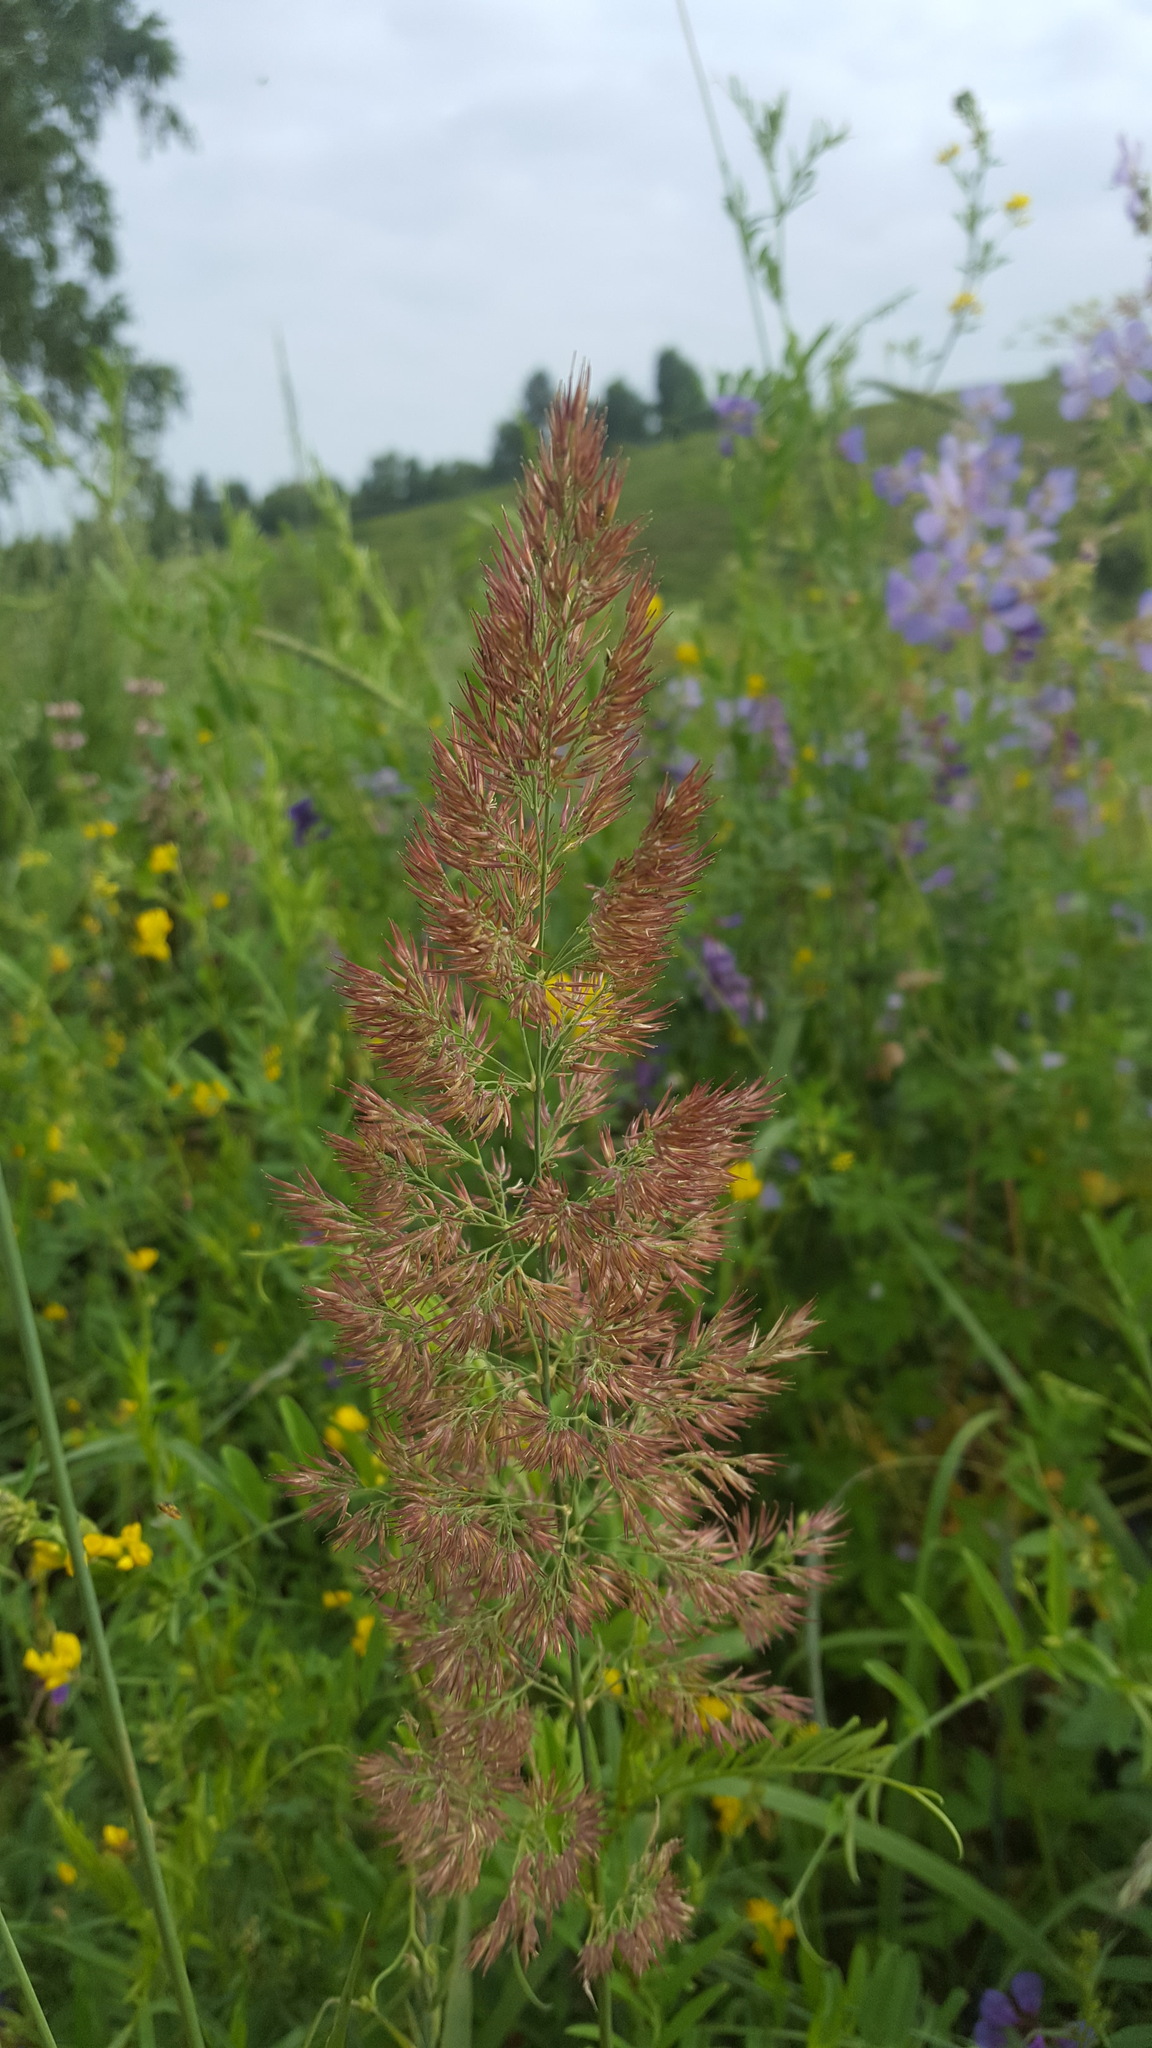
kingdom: Plantae
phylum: Tracheophyta
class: Liliopsida
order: Poales
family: Poaceae
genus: Calamagrostis
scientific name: Calamagrostis epigejos
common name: Wood small-reed
